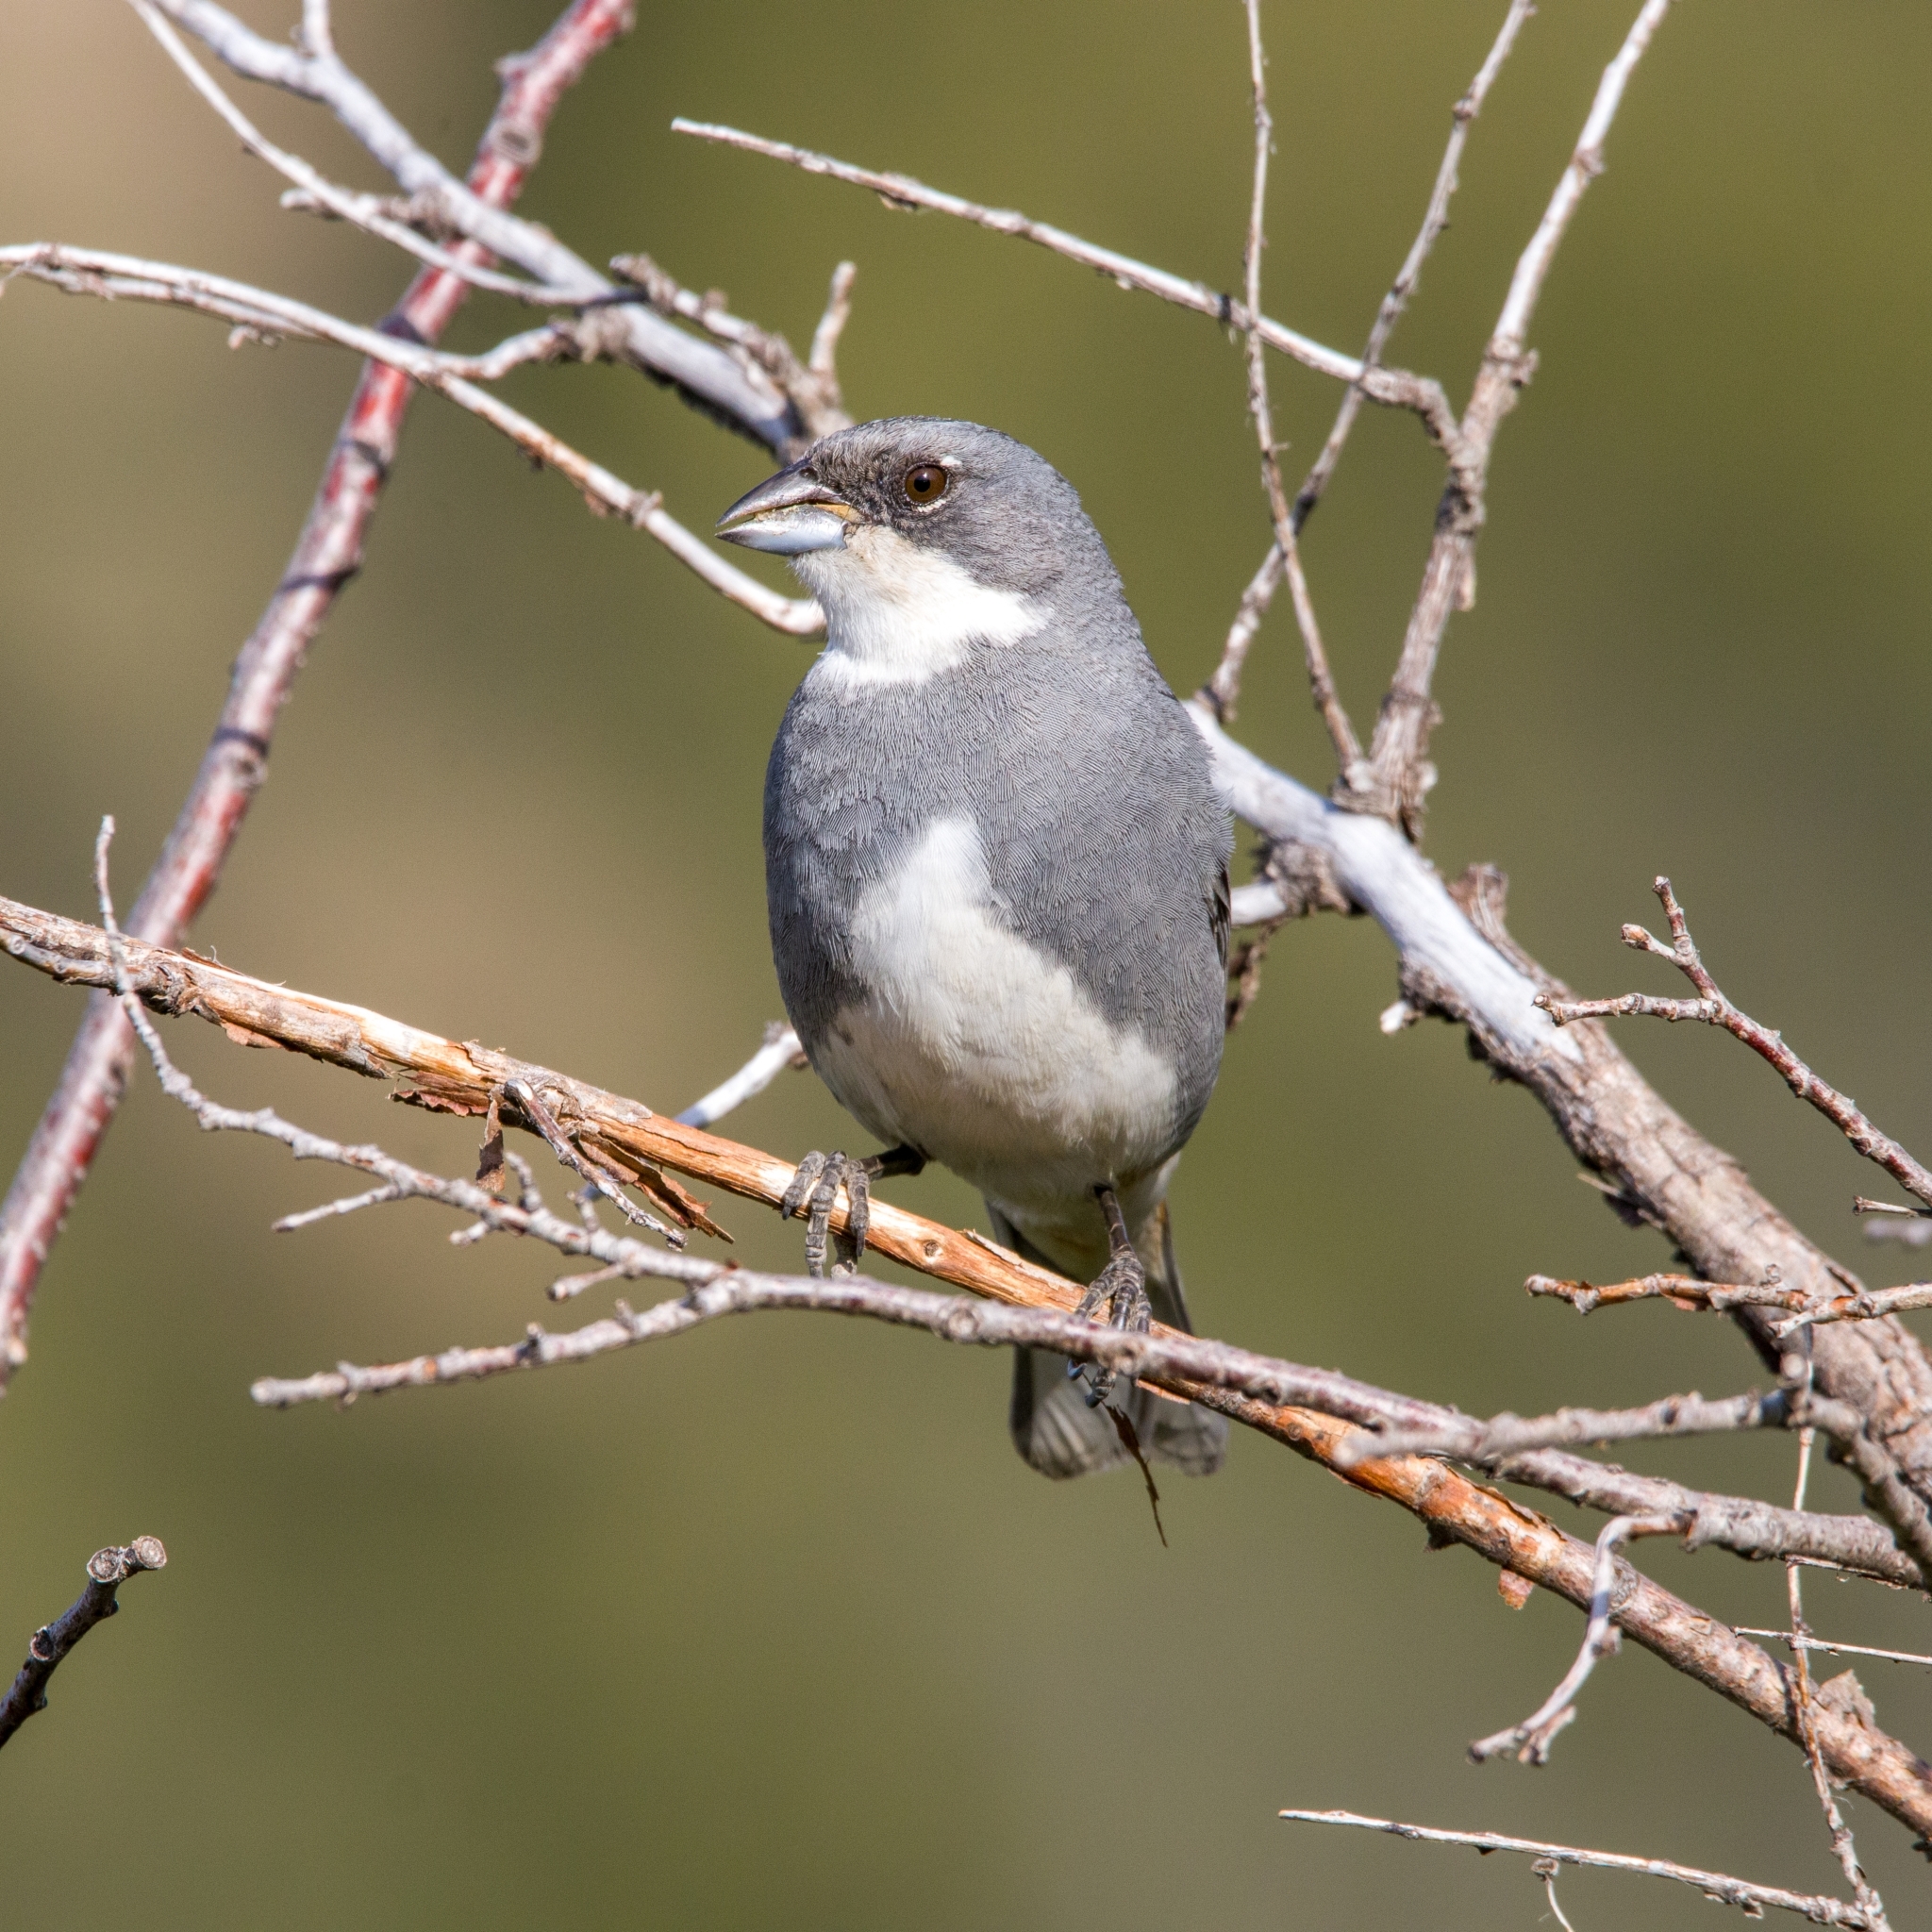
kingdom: Animalia
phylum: Chordata
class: Aves
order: Passeriformes
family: Thraupidae
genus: Diuca
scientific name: Diuca diuca
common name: Common diuca finch
